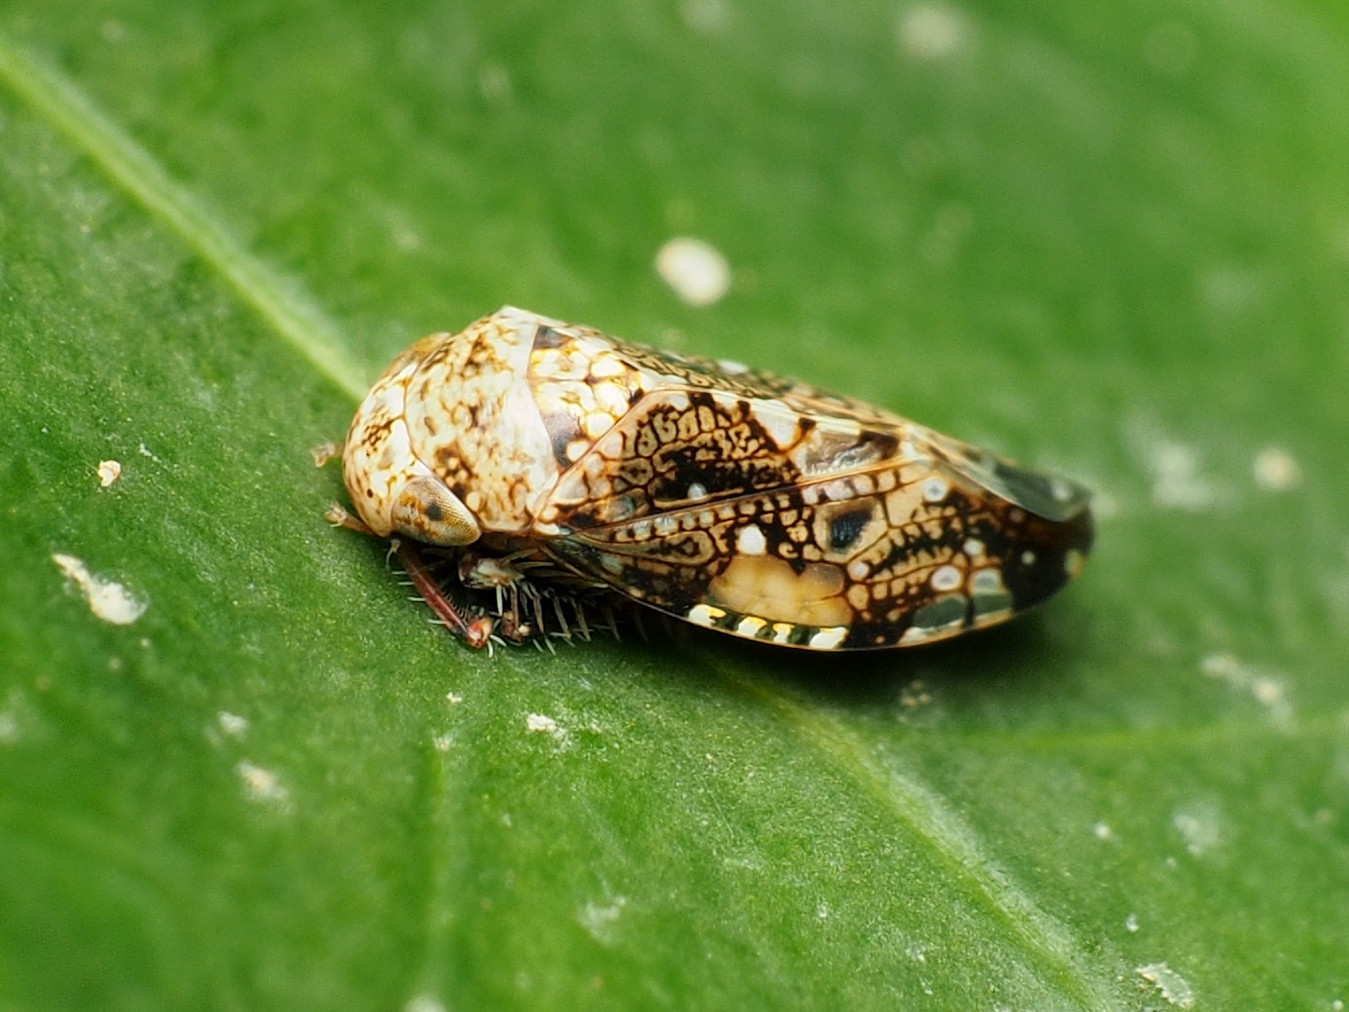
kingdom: Animalia
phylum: Arthropoda
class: Insecta
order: Hemiptera
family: Cicadellidae
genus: Penthimiola
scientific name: Penthimiola bella
